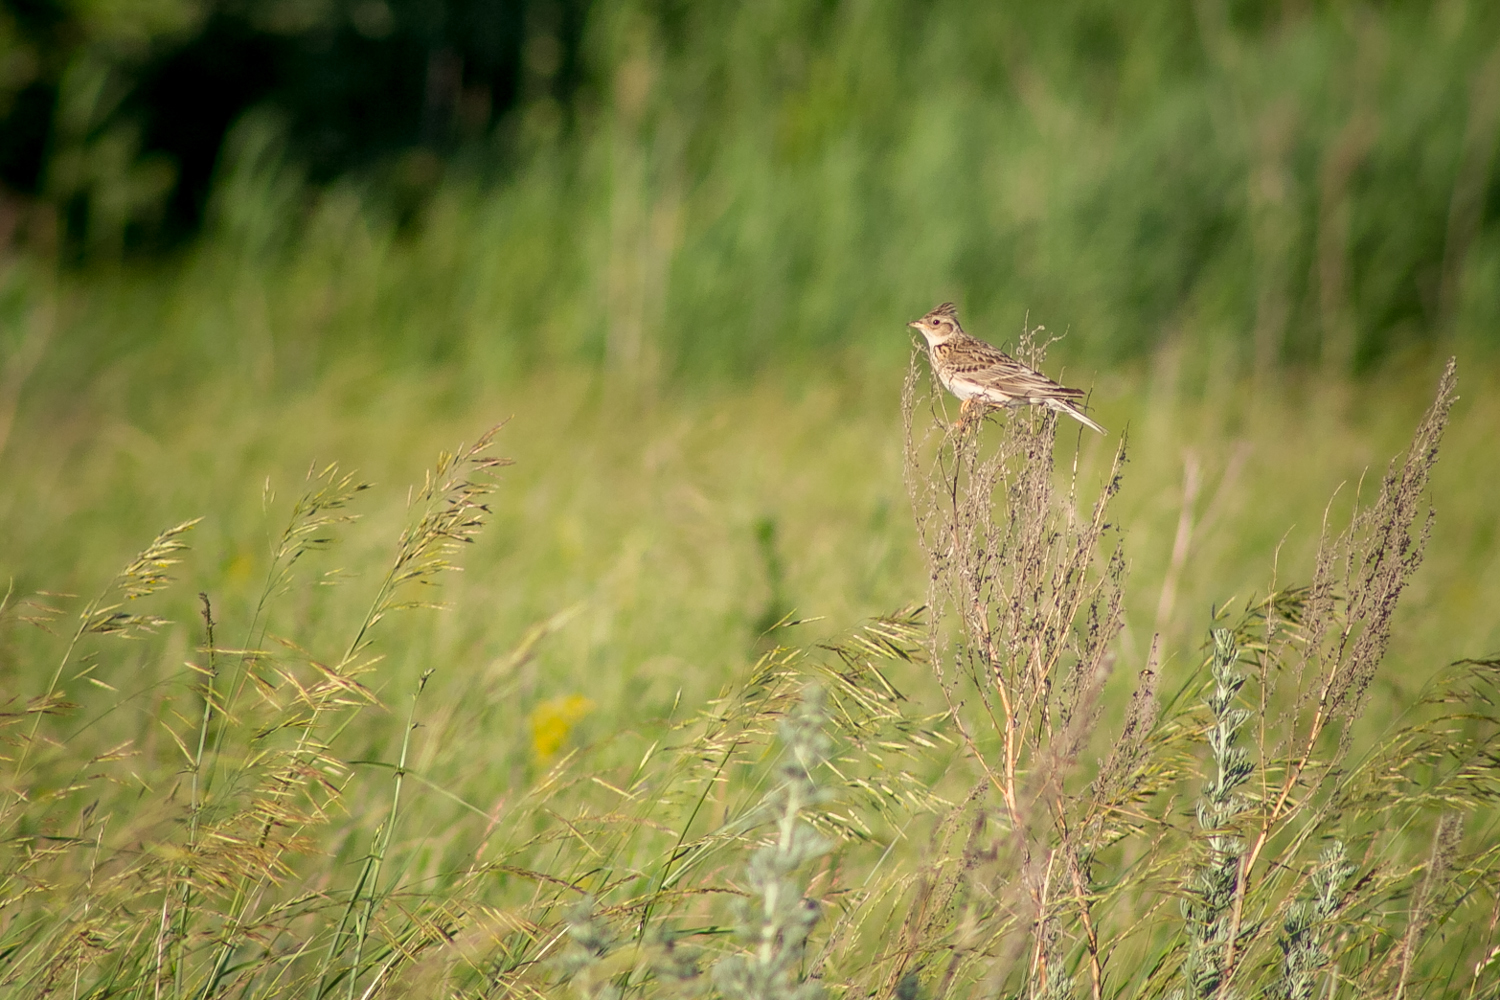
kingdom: Animalia
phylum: Chordata
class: Aves
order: Passeriformes
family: Alaudidae
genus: Alauda
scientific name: Alauda arvensis
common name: Eurasian skylark
